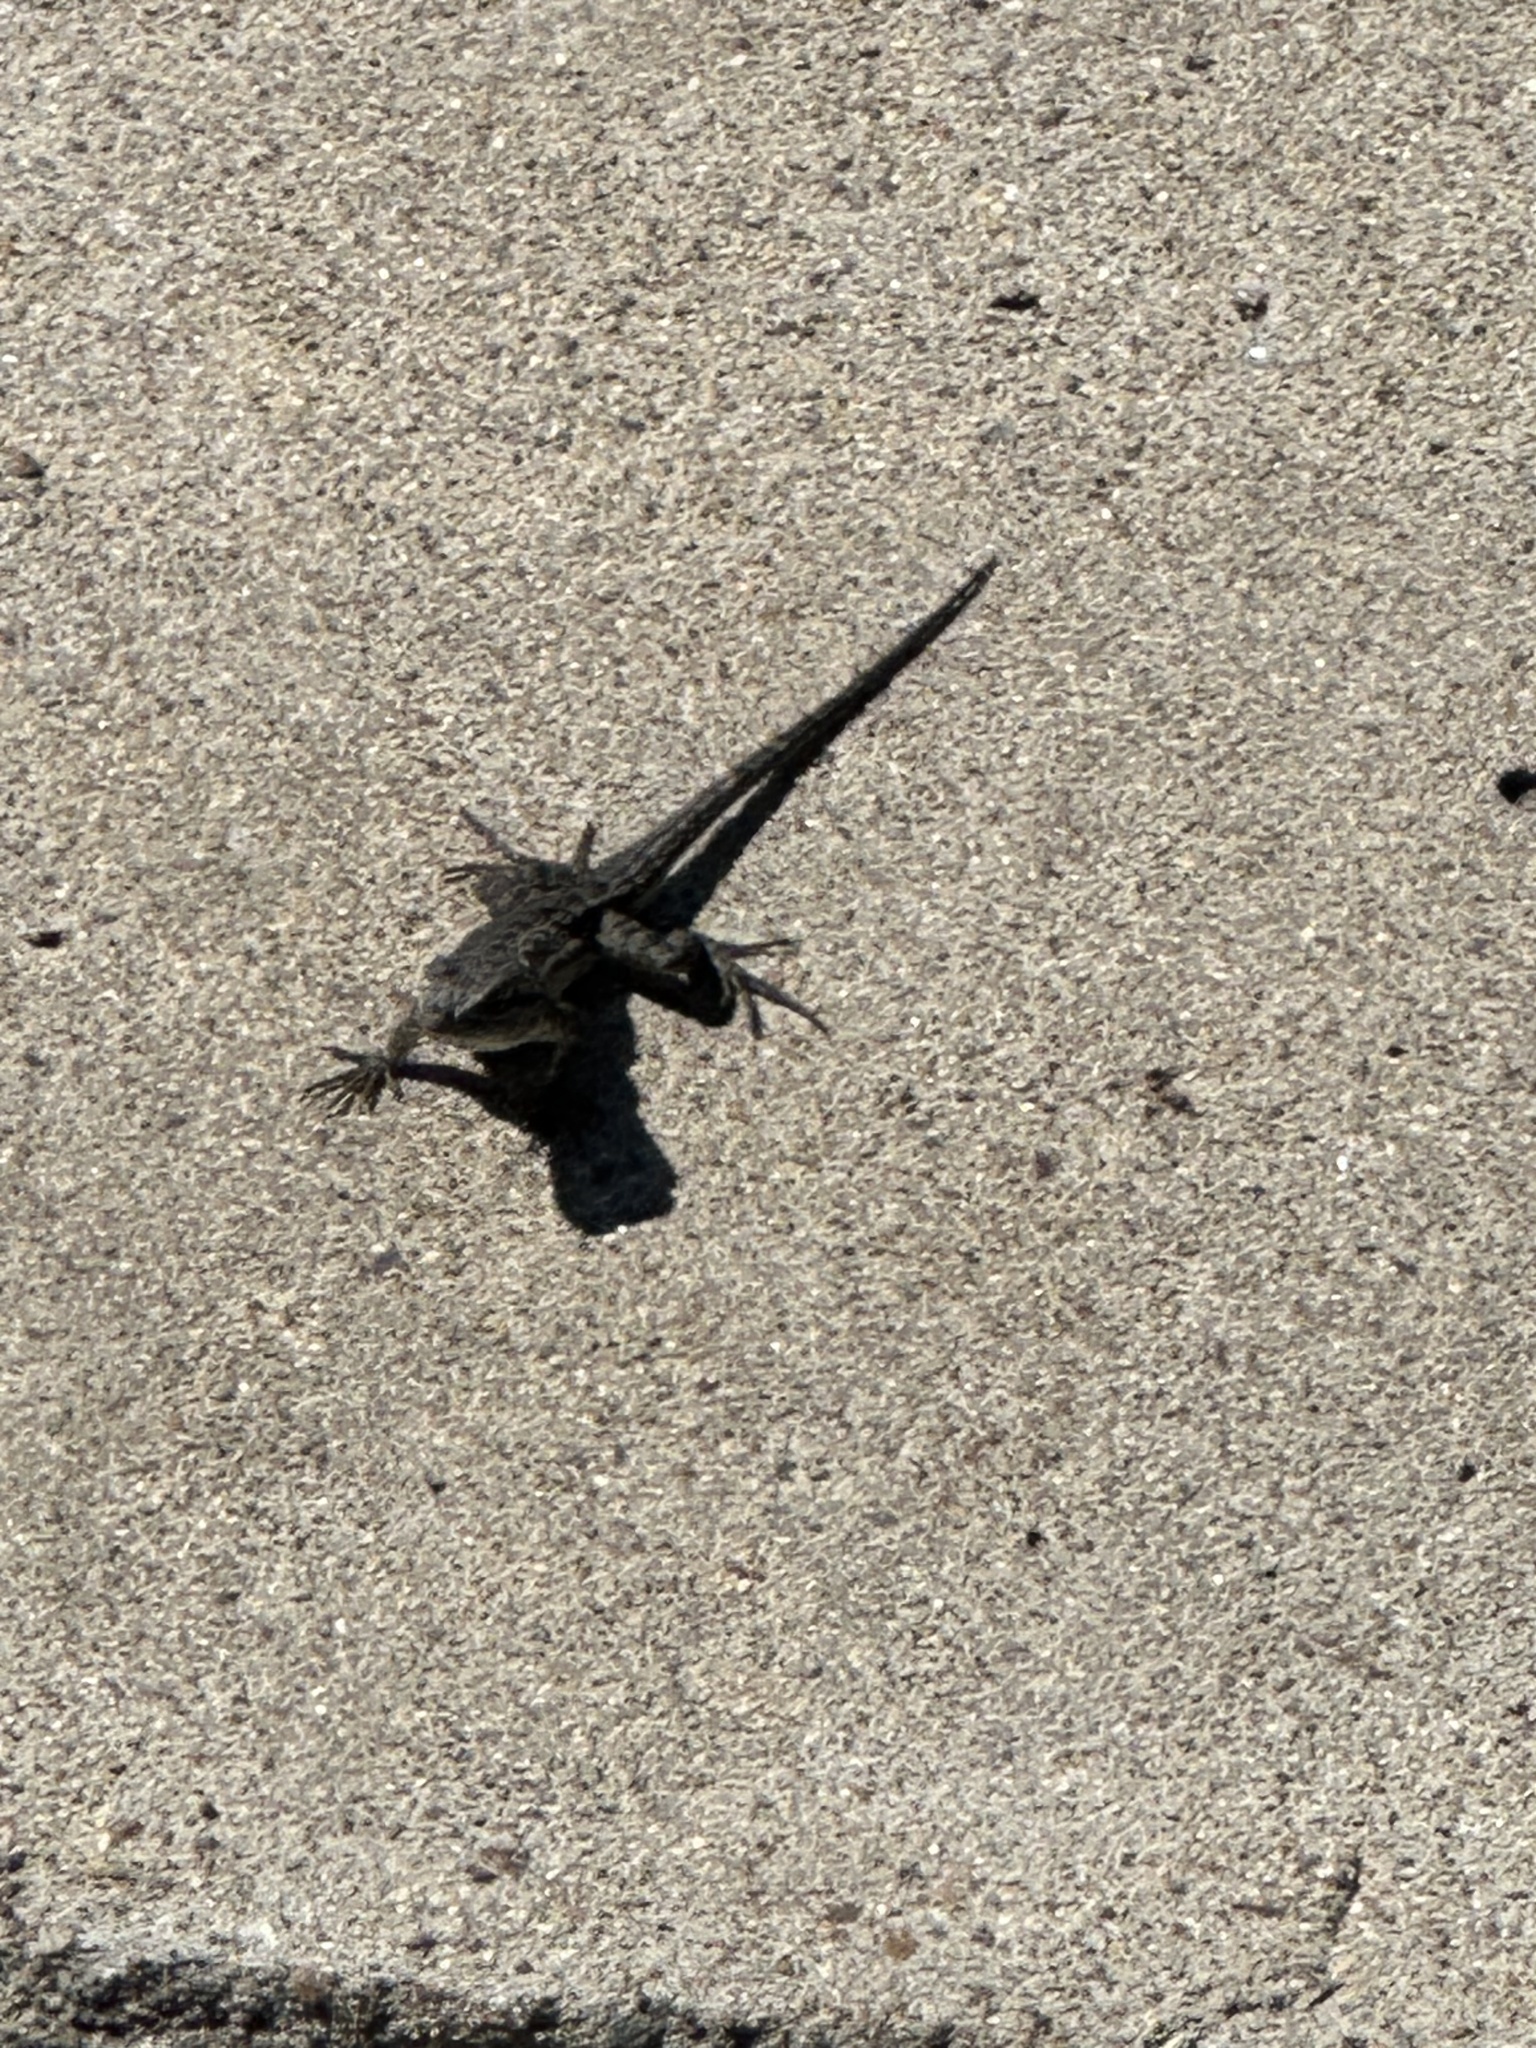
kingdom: Animalia
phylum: Chordata
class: Squamata
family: Phrynosomatidae
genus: Sceloporus
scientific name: Sceloporus occidentalis
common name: Western fence lizard
